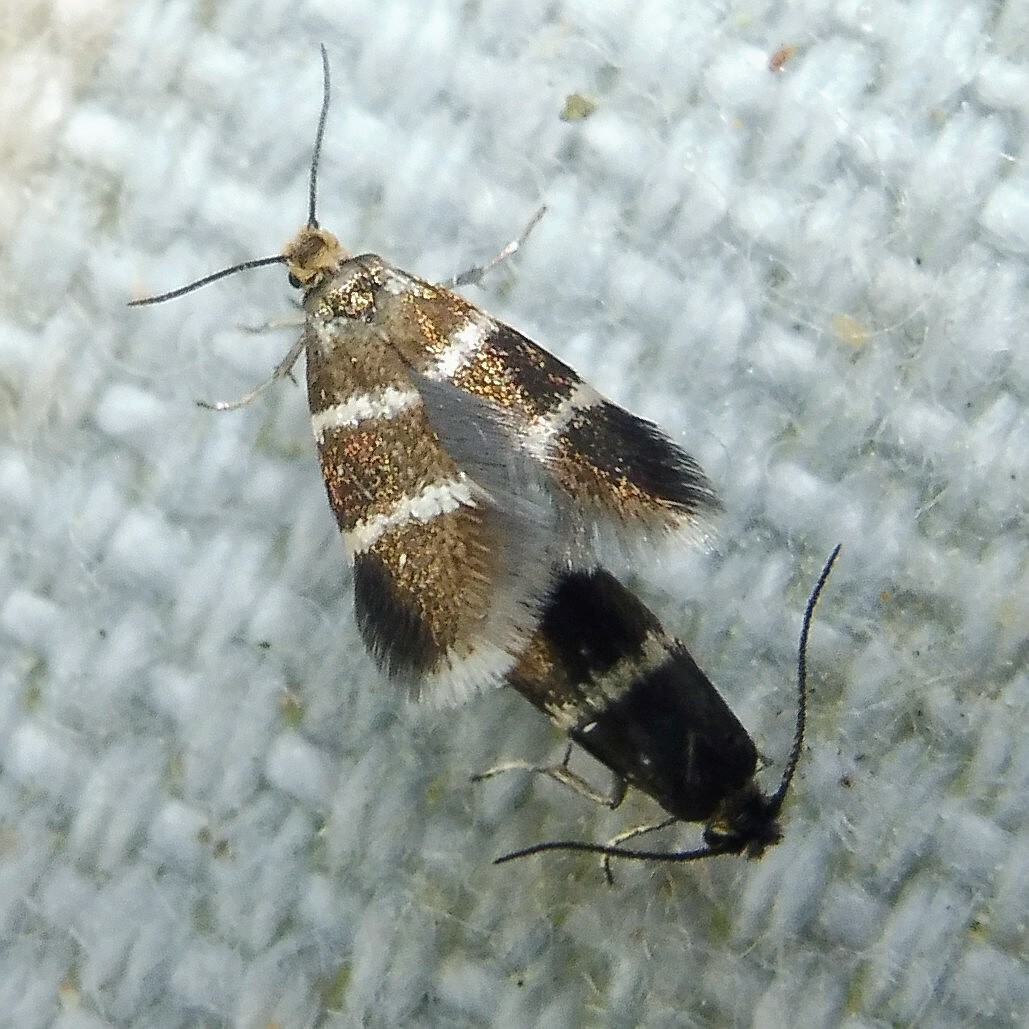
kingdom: Animalia
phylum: Arthropoda
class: Insecta
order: Lepidoptera
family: Incurvariidae
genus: Phylloporia
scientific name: Phylloporia bistrigella
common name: Striped bright
